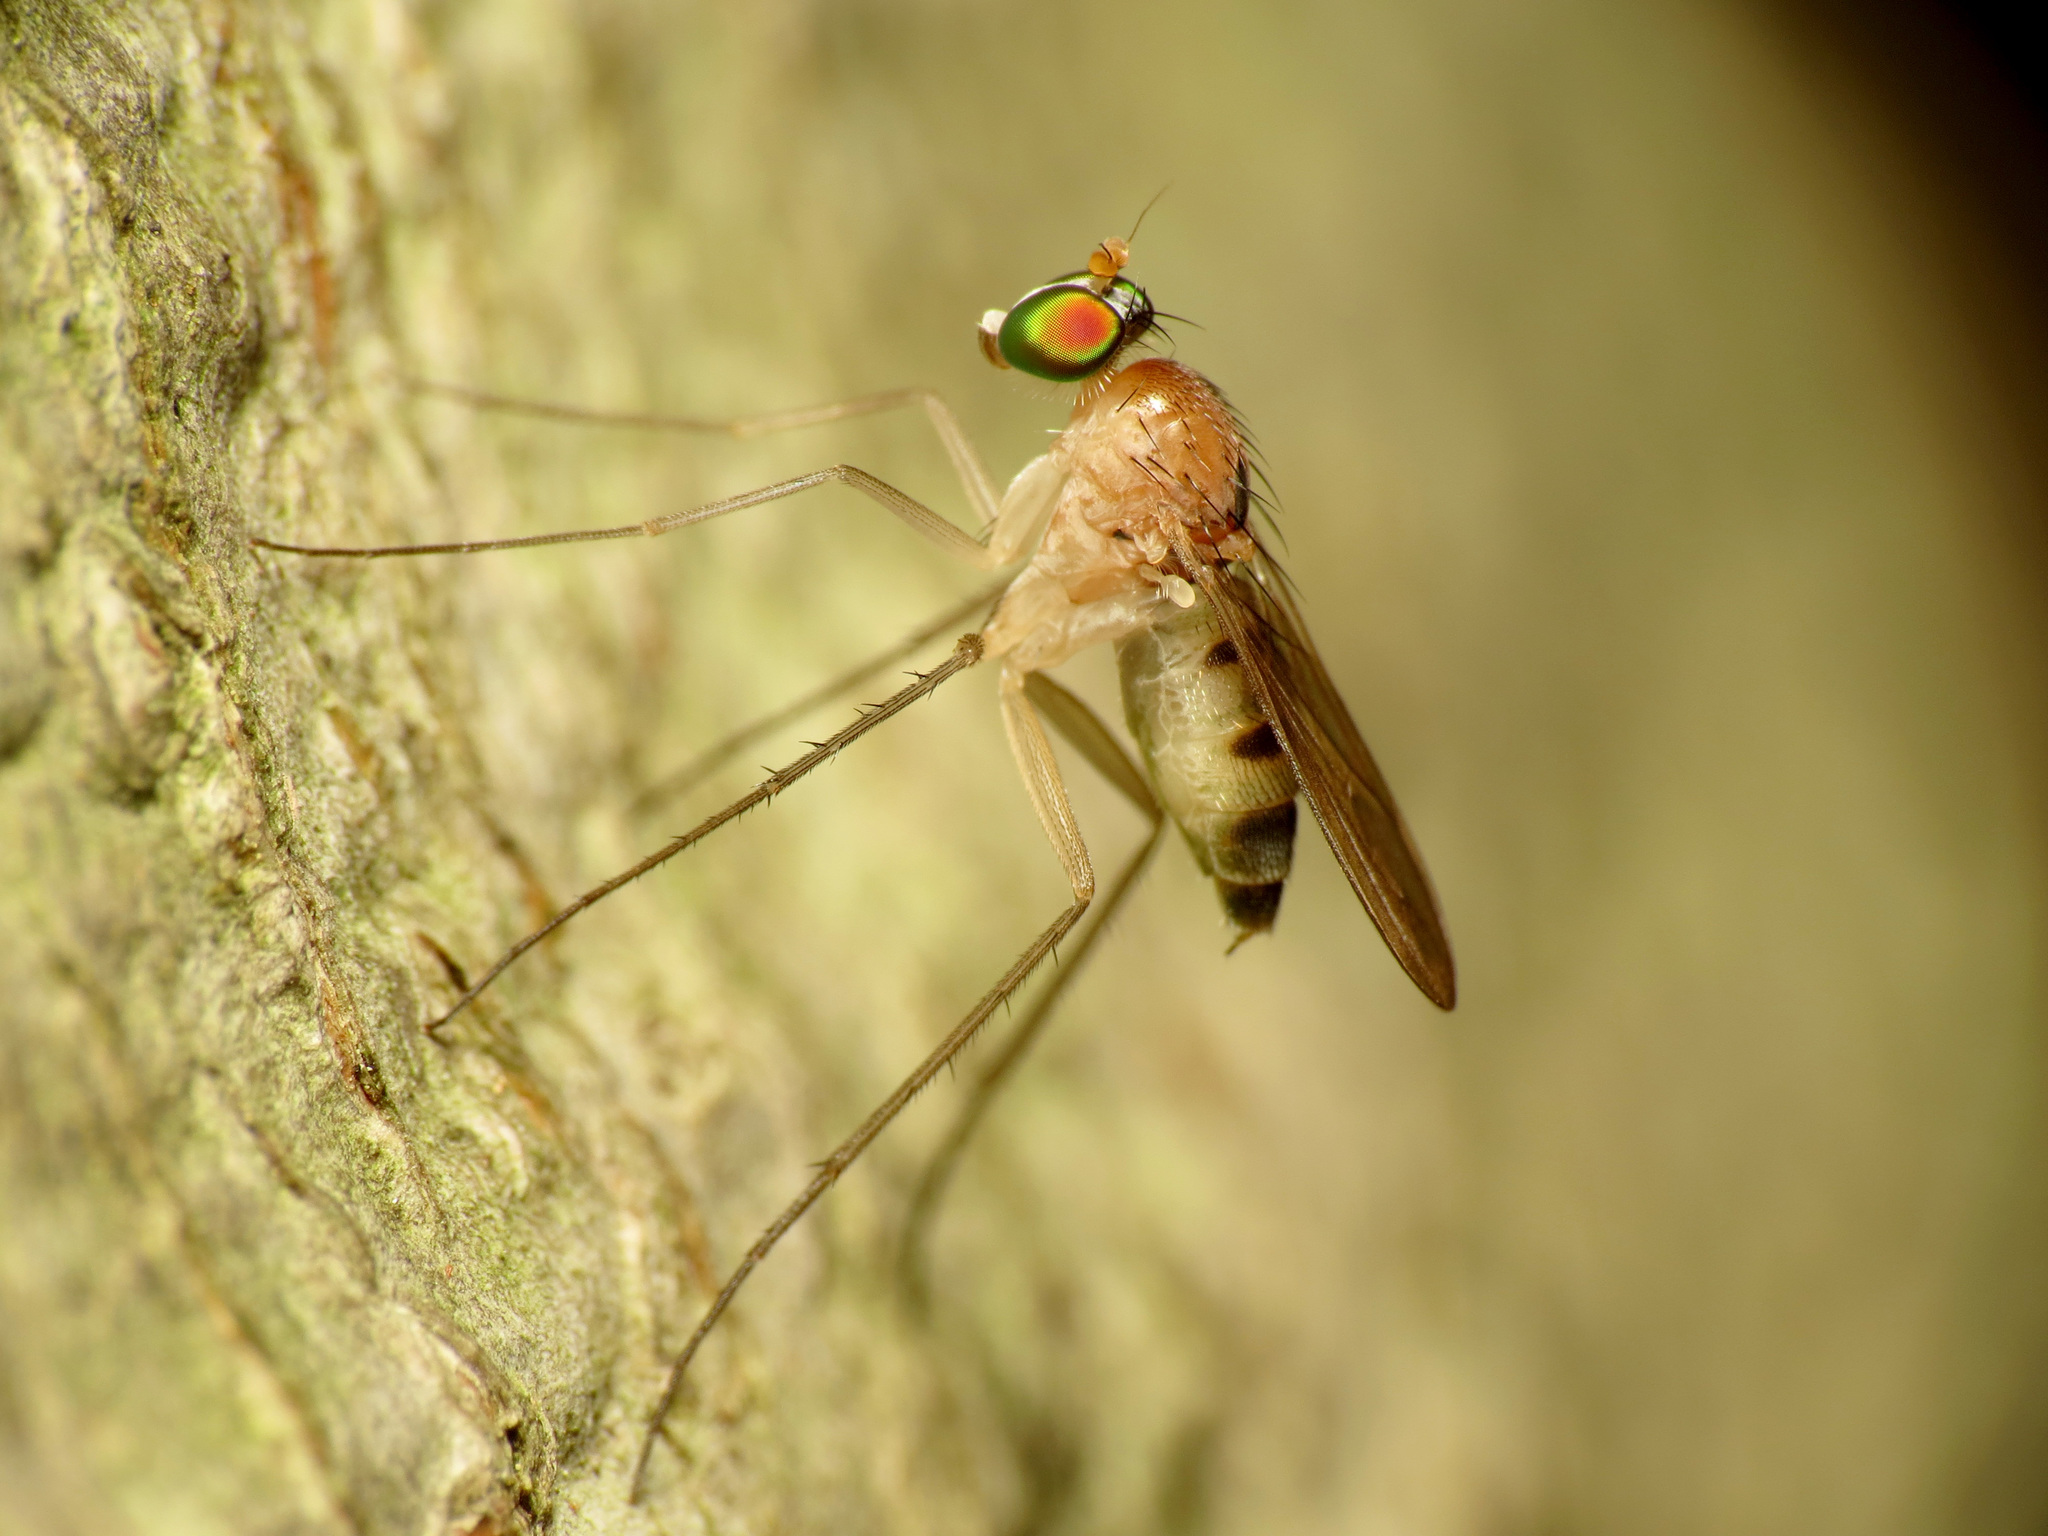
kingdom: Animalia
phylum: Arthropoda
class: Insecta
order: Diptera
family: Dolichopodidae
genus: Neurigona
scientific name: Neurigona dimidiata
